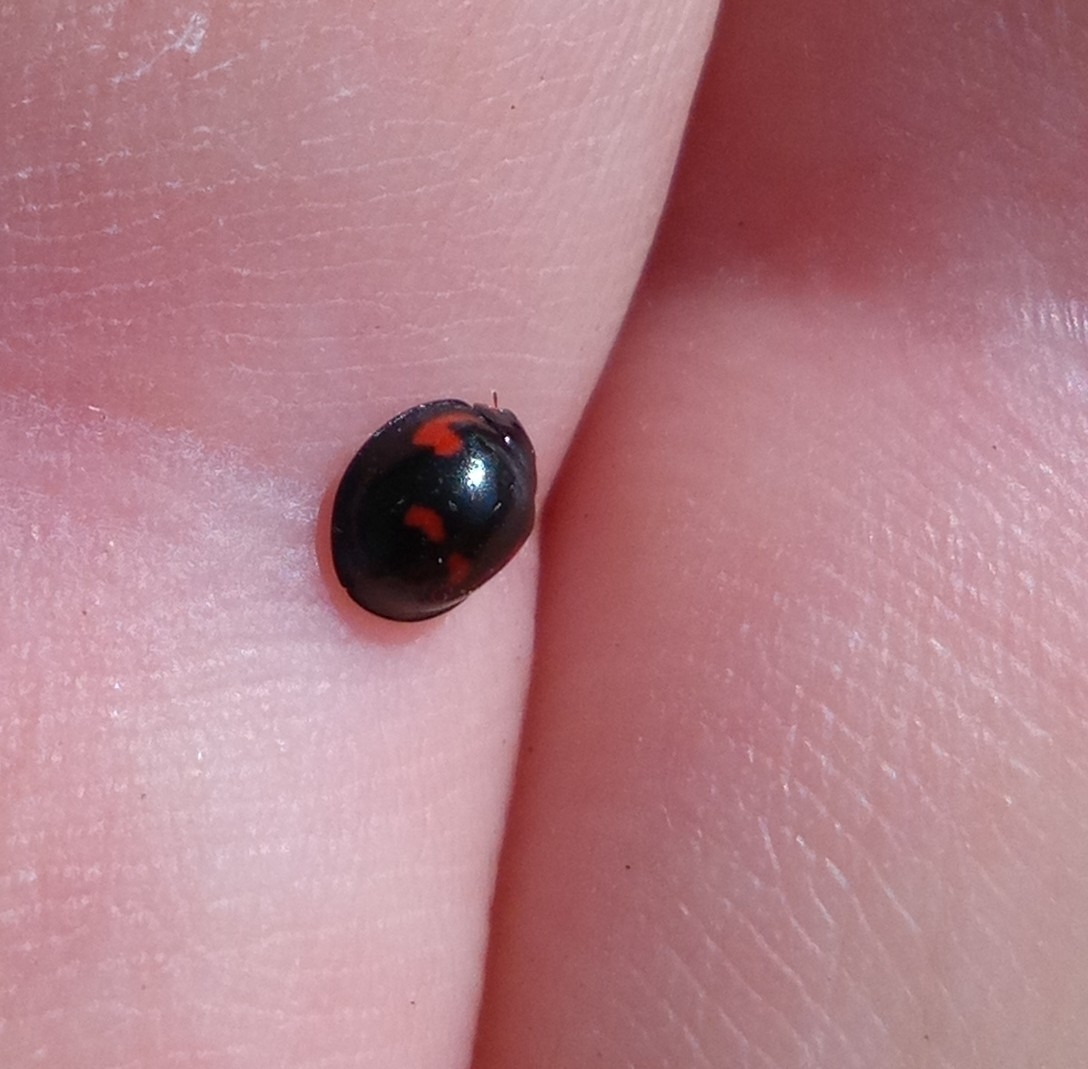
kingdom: Animalia
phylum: Arthropoda
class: Insecta
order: Coleoptera
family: Coccinellidae
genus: Brumus
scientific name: Brumus quadripustulatus
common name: Ladybird beetle
